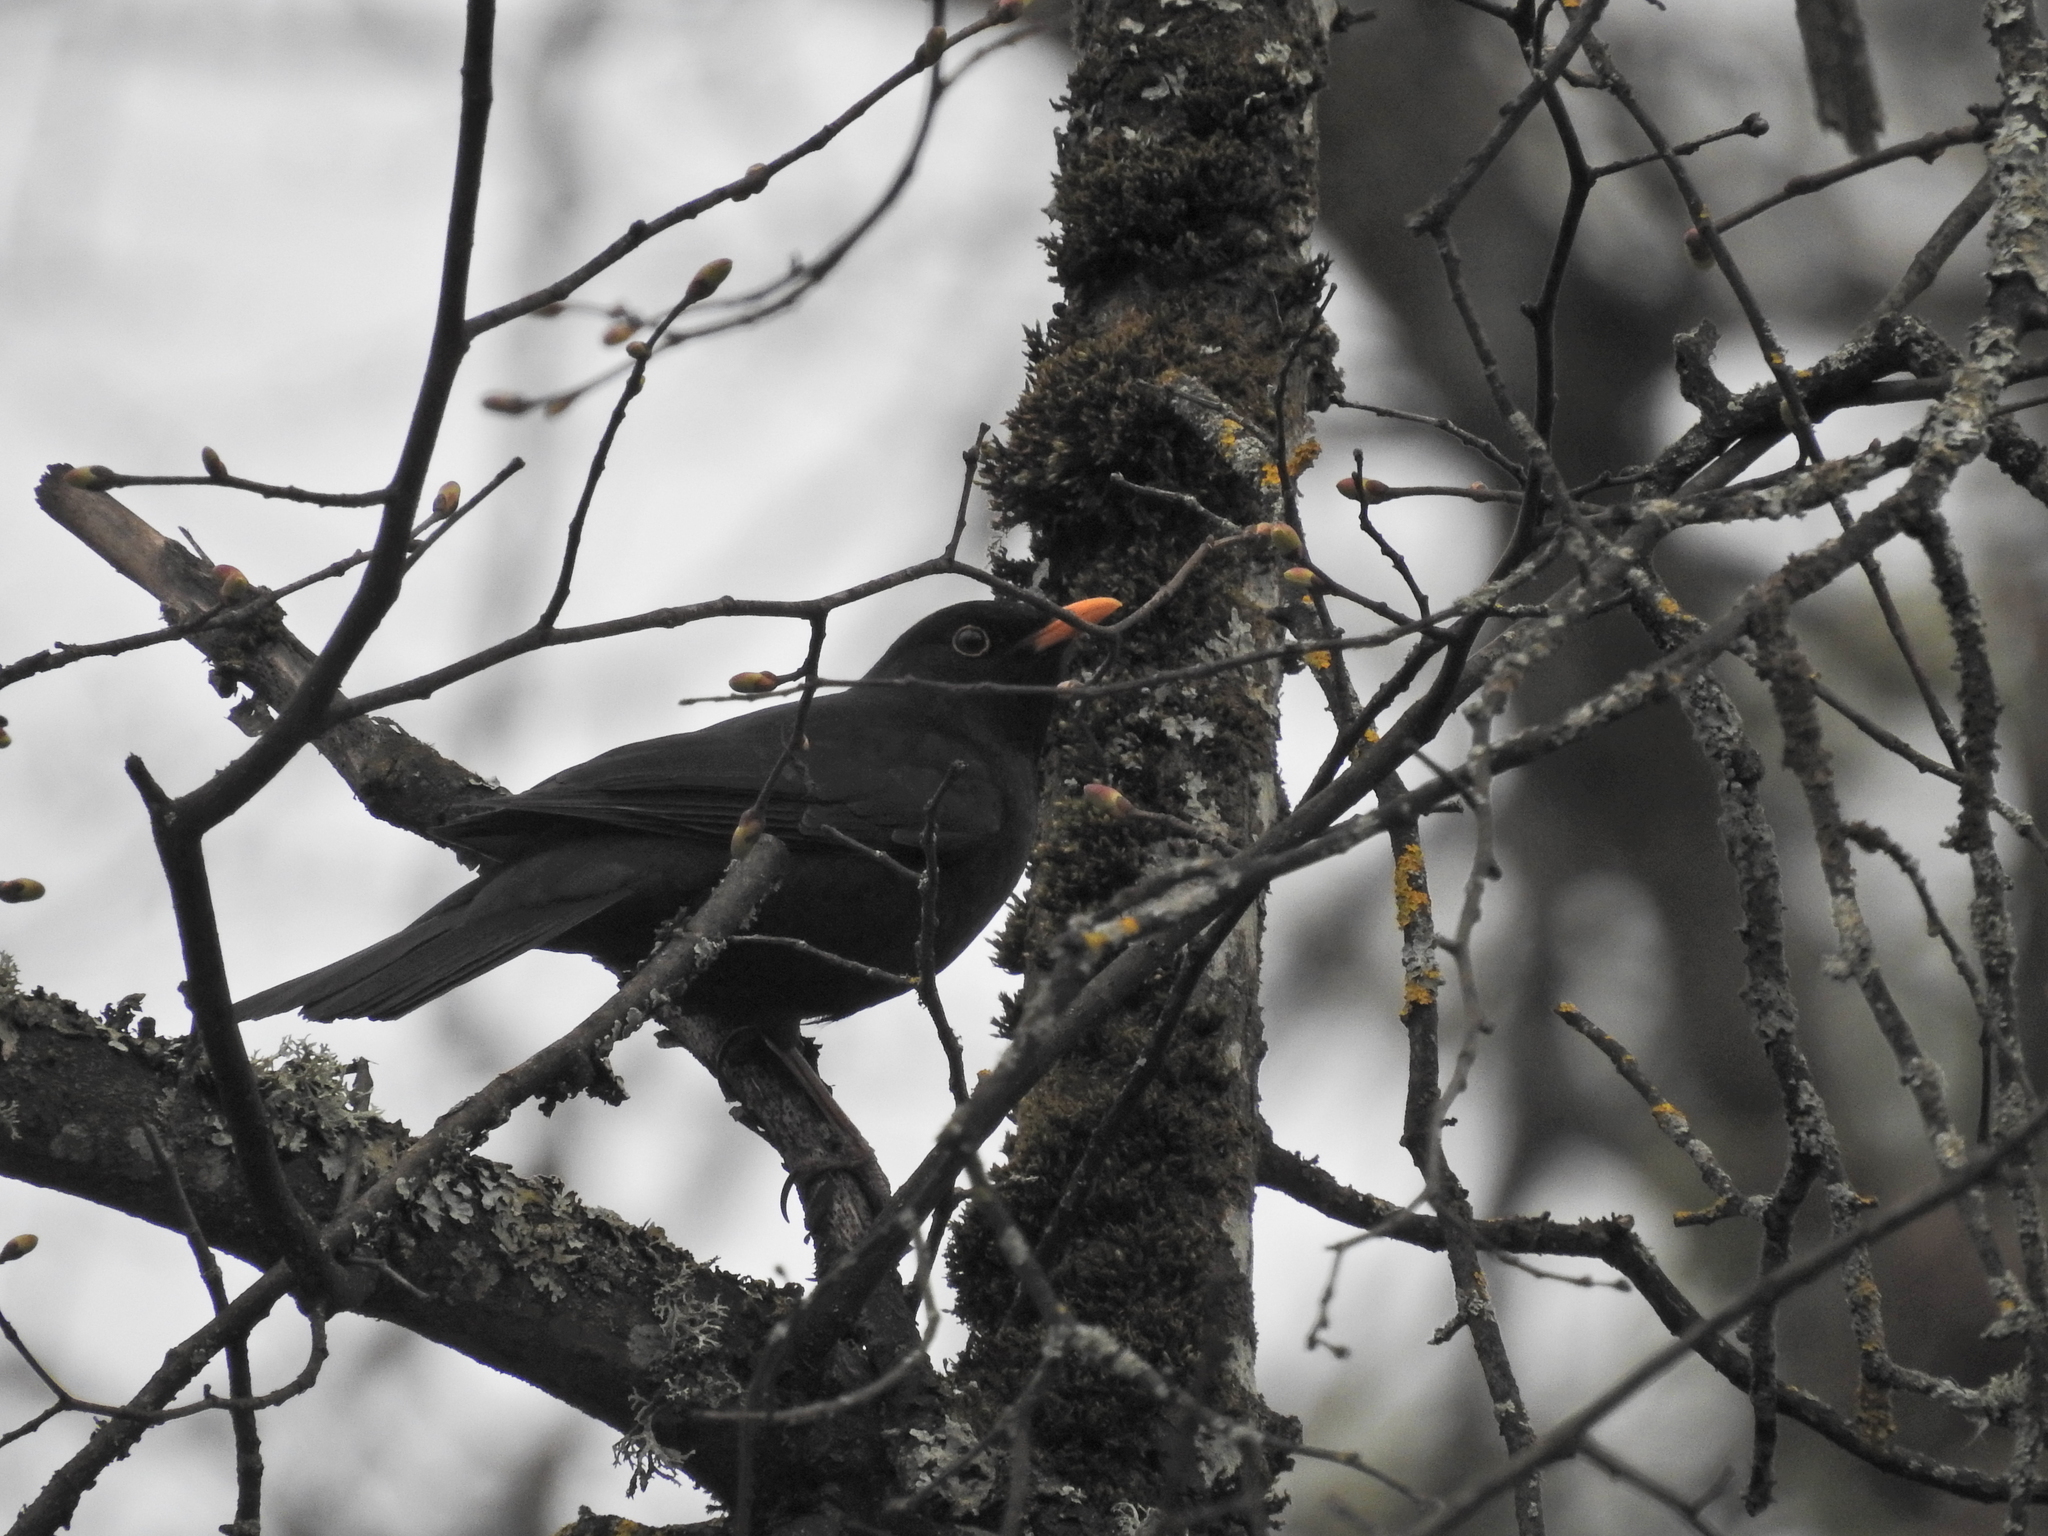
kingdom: Animalia
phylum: Chordata
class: Aves
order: Passeriformes
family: Turdidae
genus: Turdus
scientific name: Turdus merula
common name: Common blackbird
